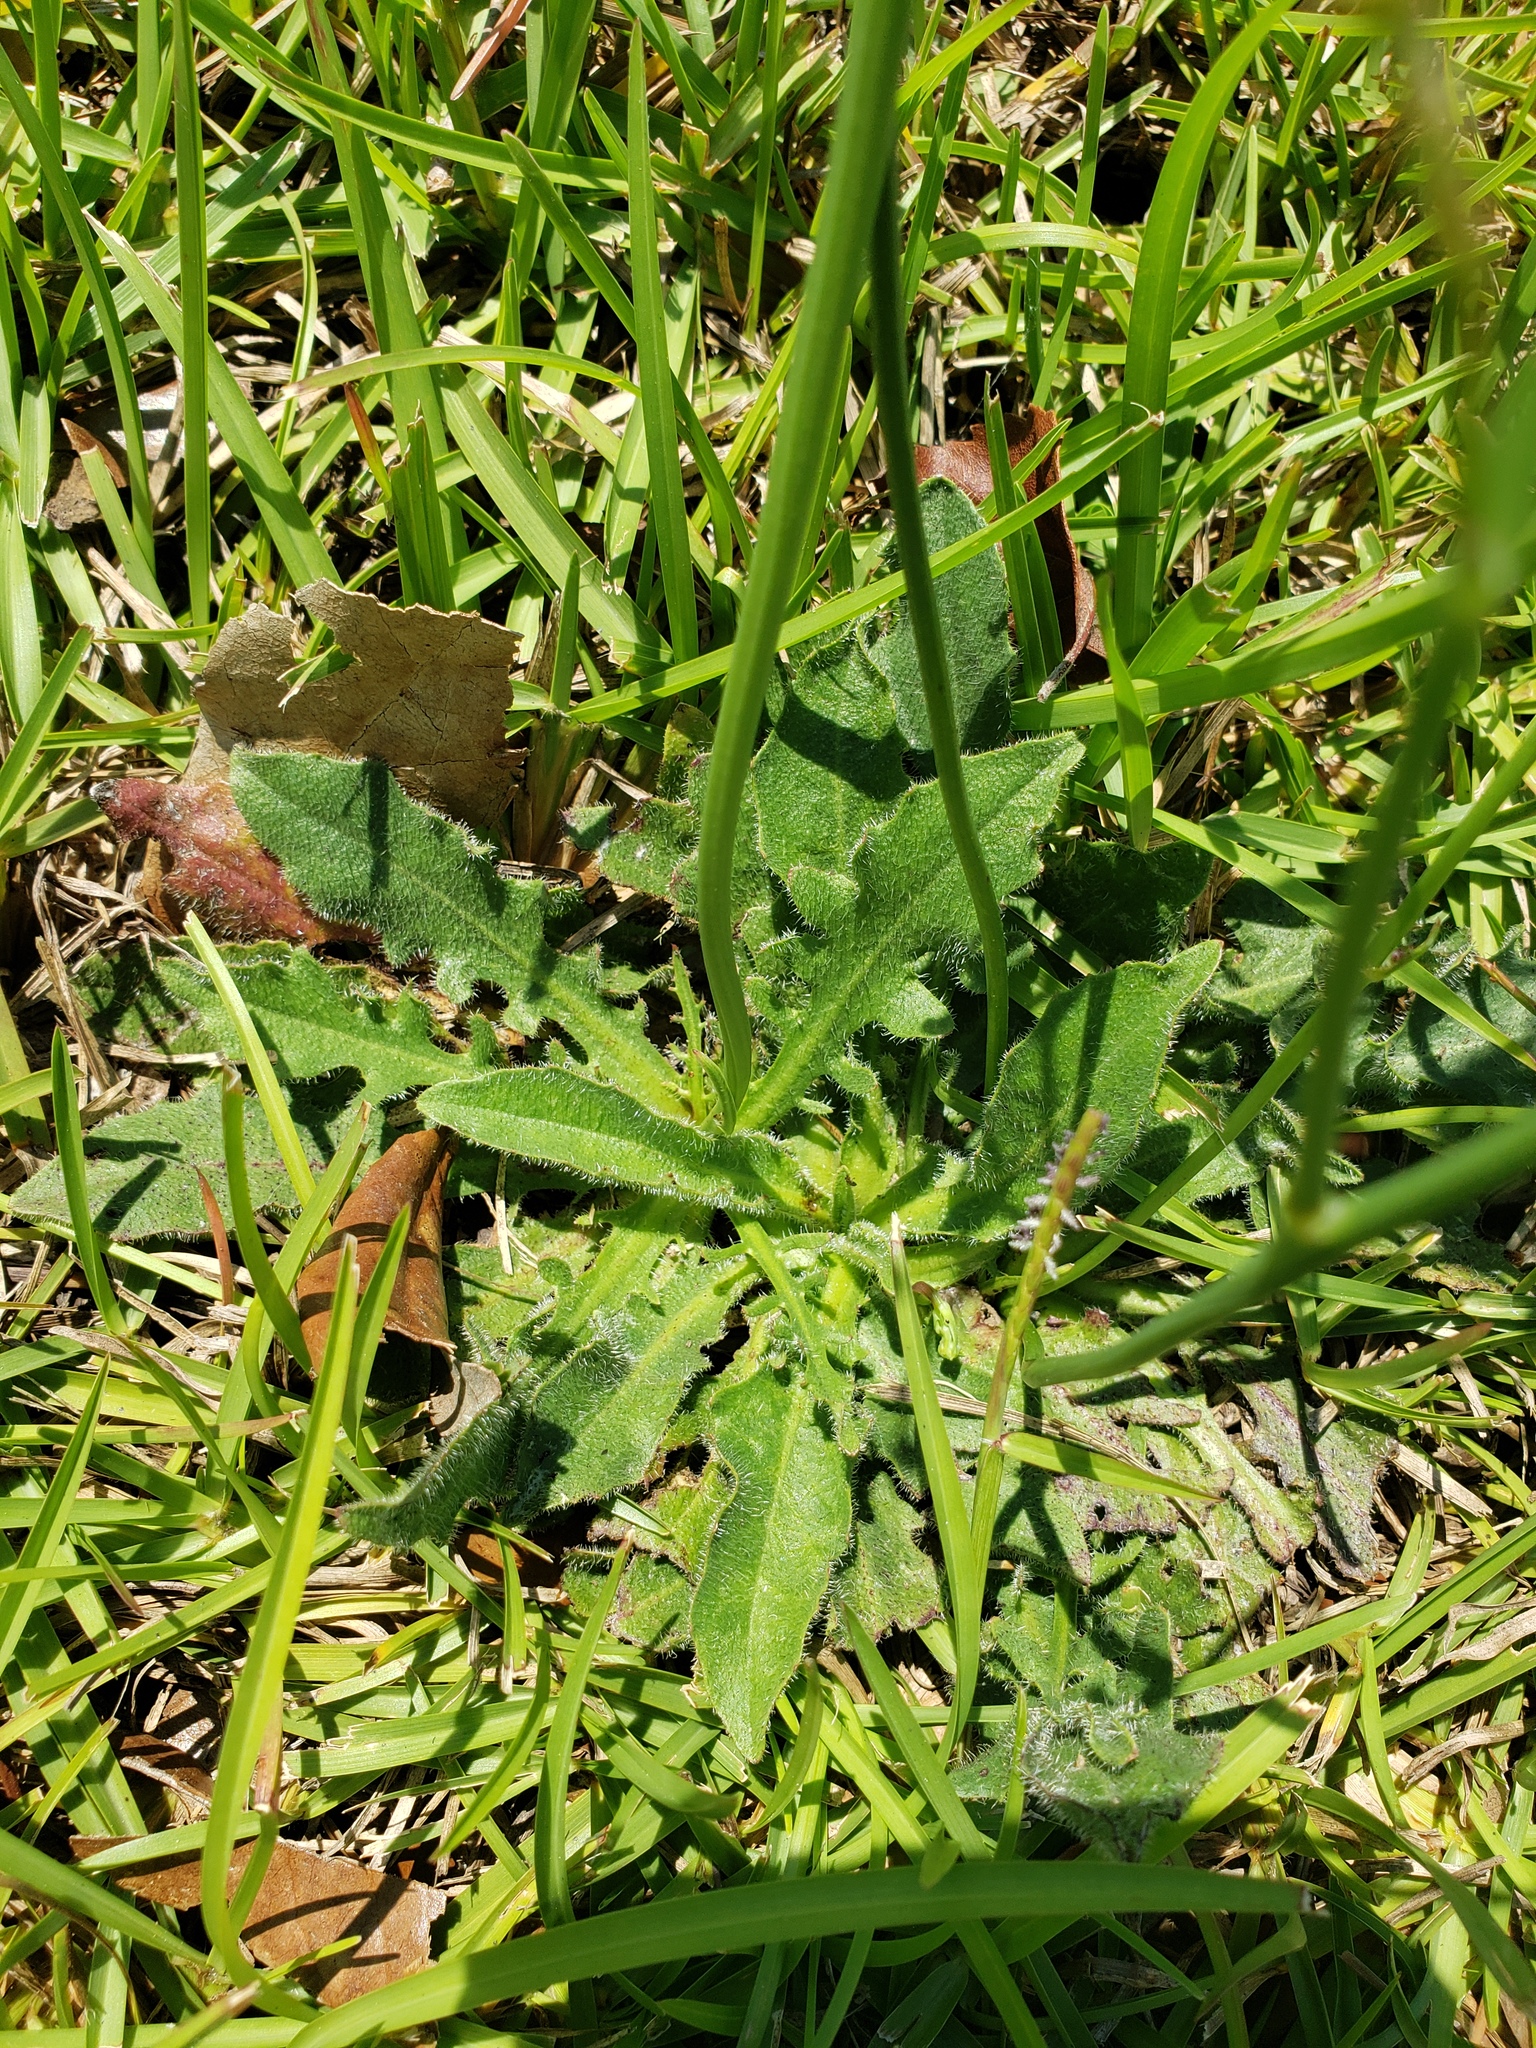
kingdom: Plantae
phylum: Tracheophyta
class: Magnoliopsida
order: Asterales
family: Asteraceae
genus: Hypochaeris
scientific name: Hypochaeris radicata
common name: Flatweed
